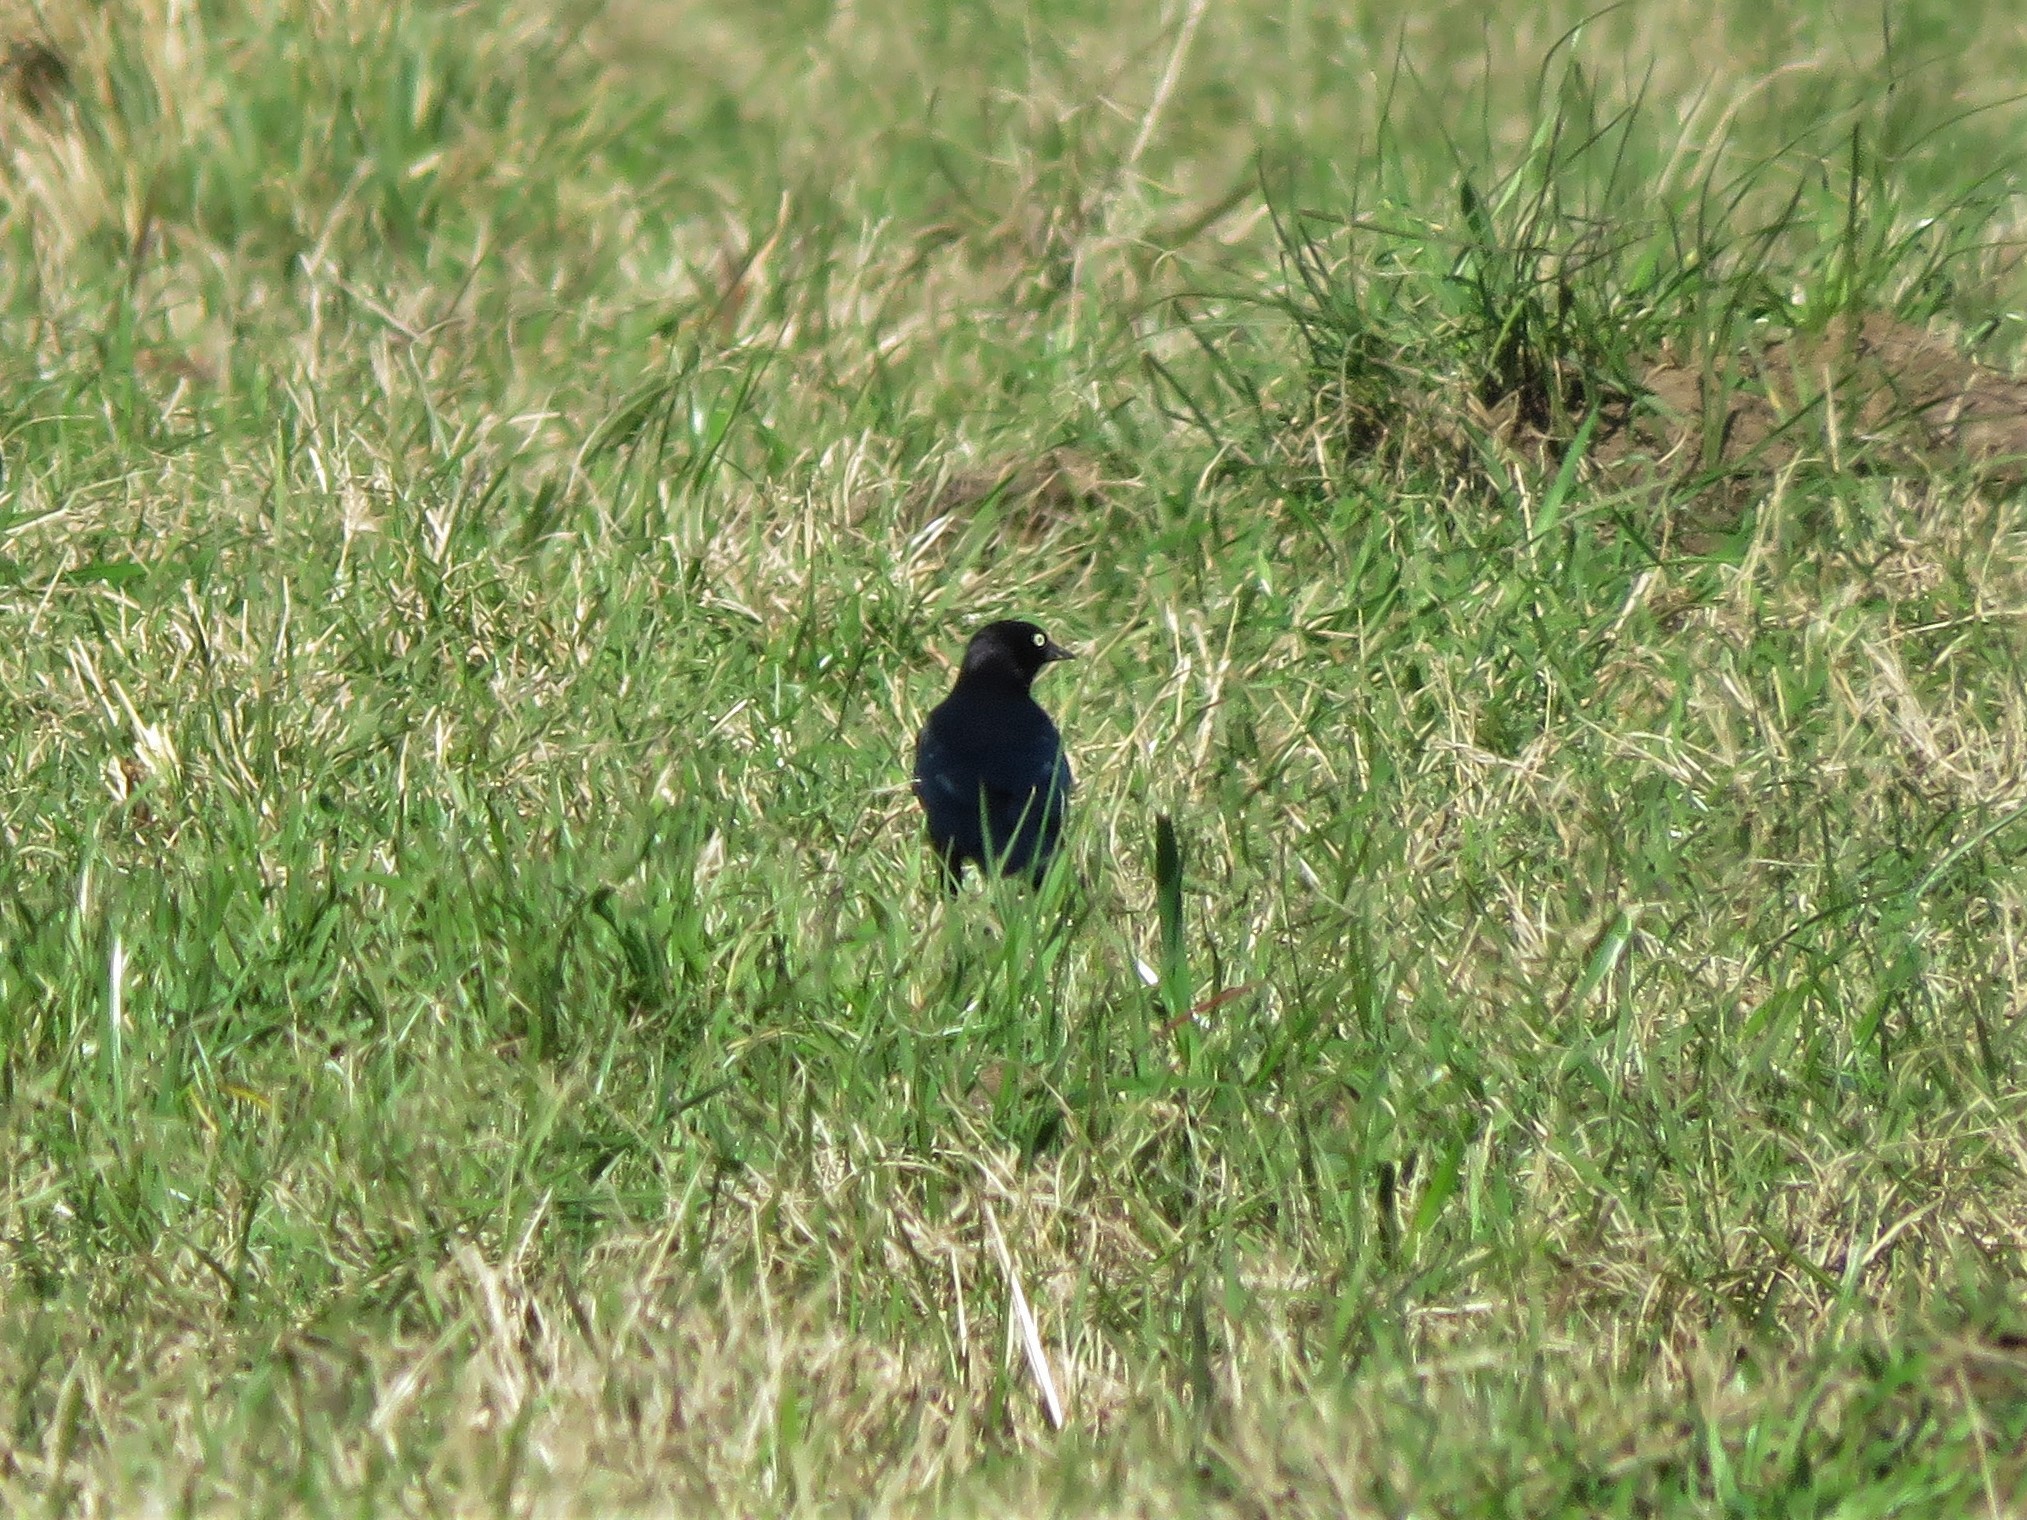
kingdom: Animalia
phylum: Chordata
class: Aves
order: Passeriformes
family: Icteridae
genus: Euphagus
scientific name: Euphagus cyanocephalus
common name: Brewer's blackbird
